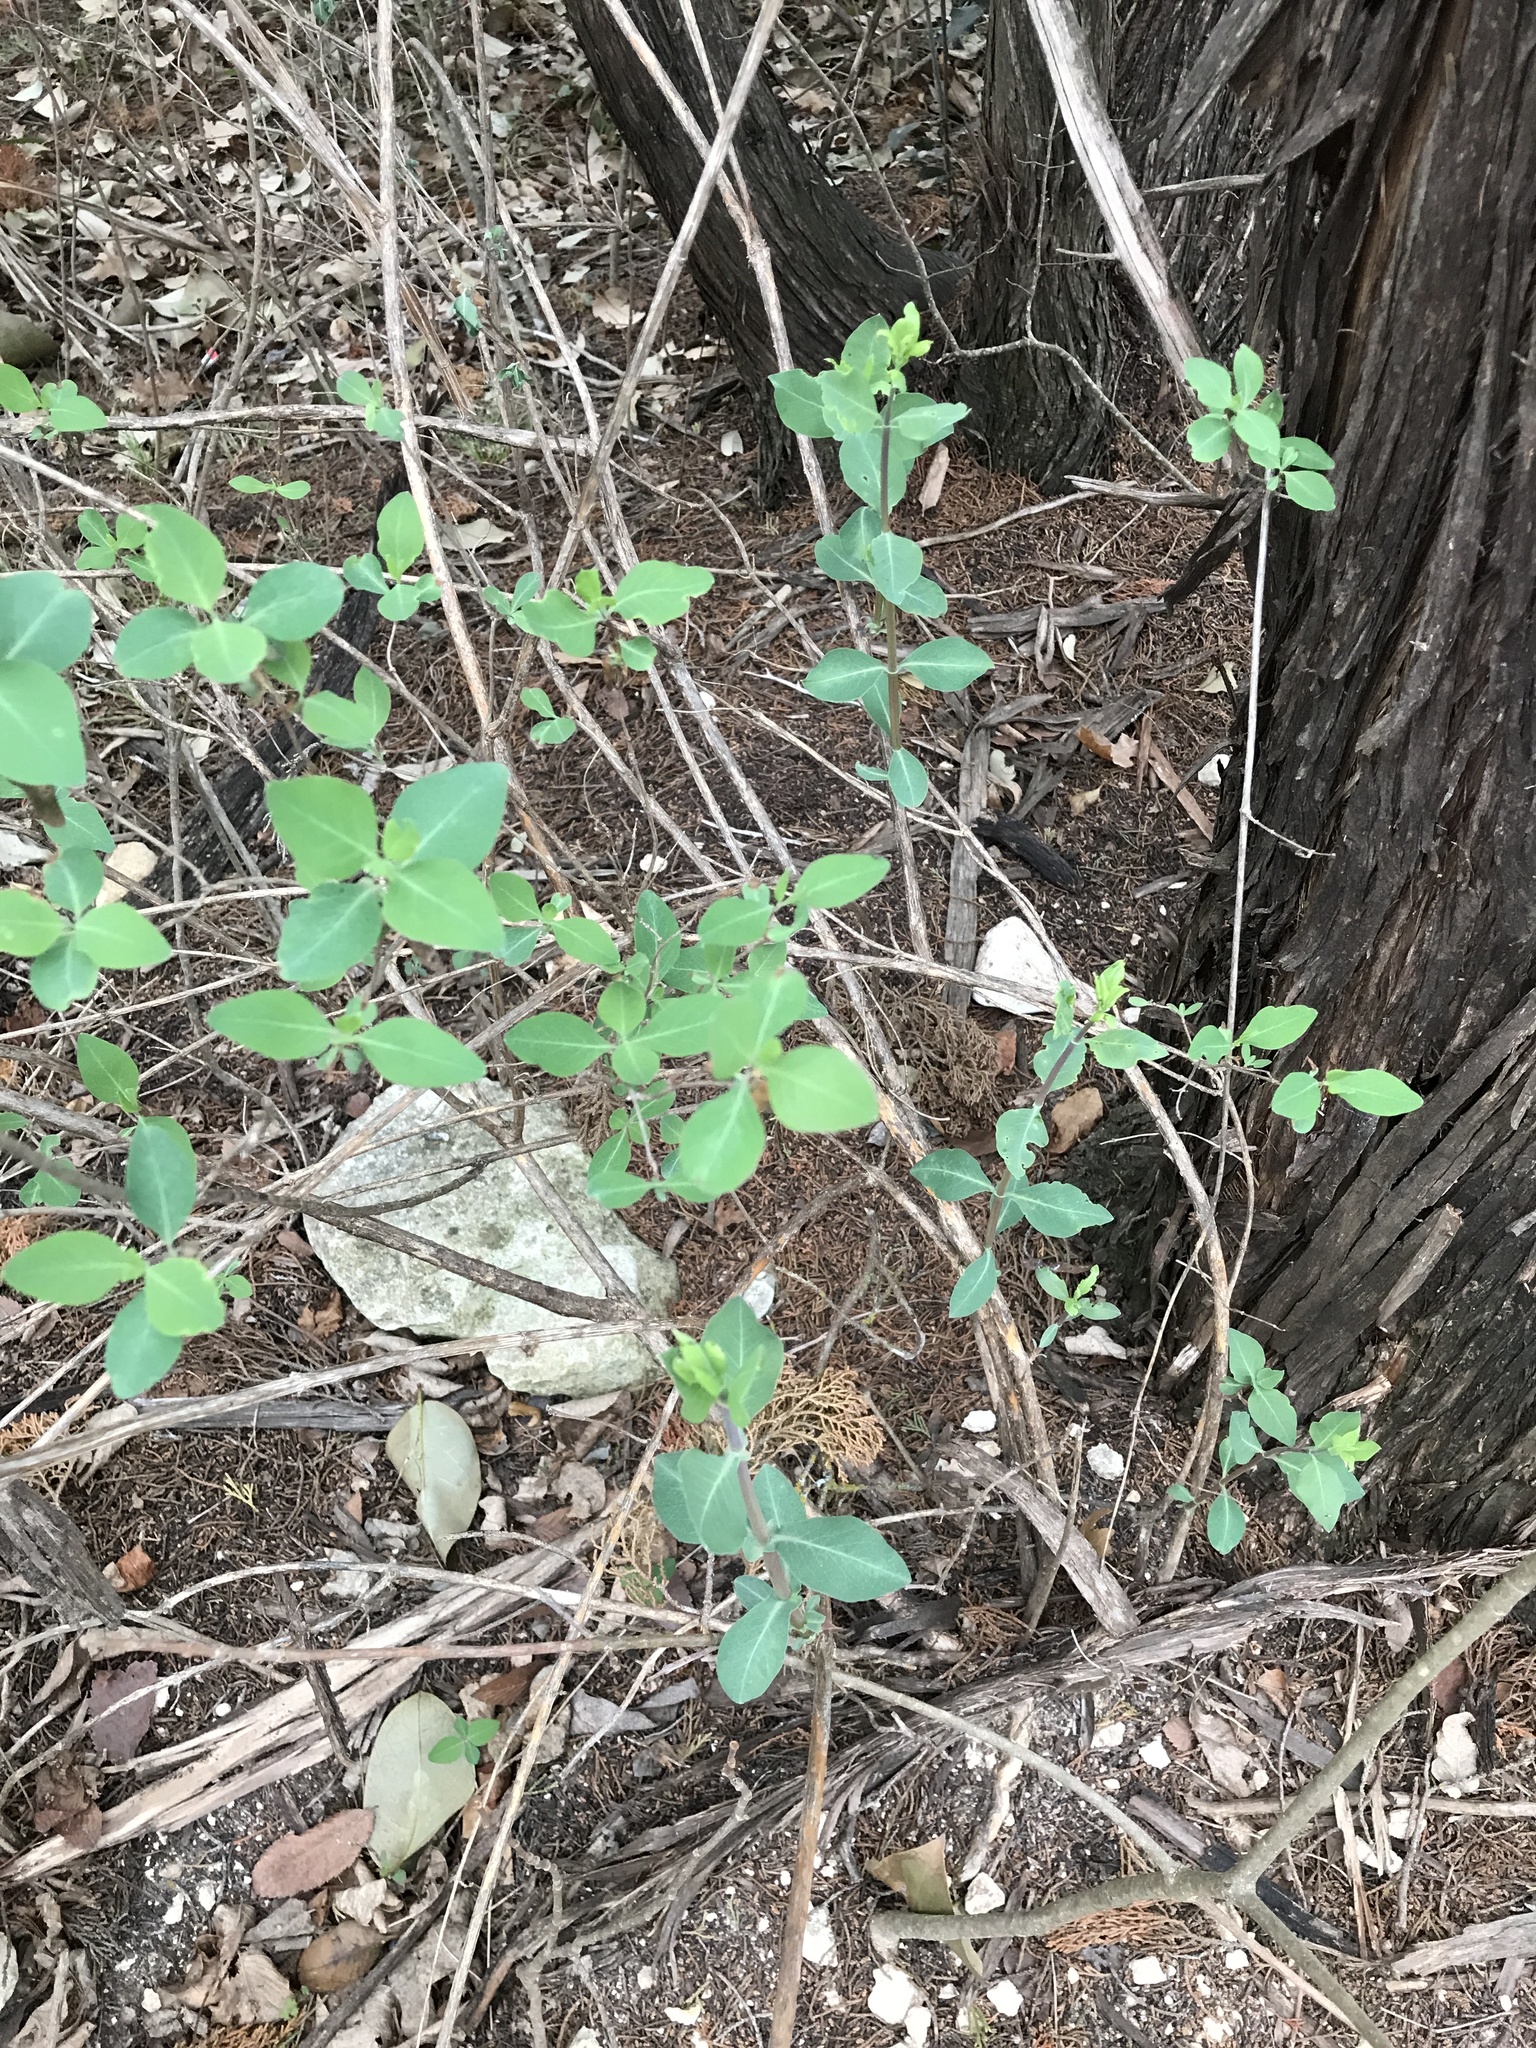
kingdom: Plantae
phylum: Tracheophyta
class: Magnoliopsida
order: Dipsacales
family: Caprifoliaceae
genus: Lonicera
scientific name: Lonicera albiflora
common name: White honeysuckle
